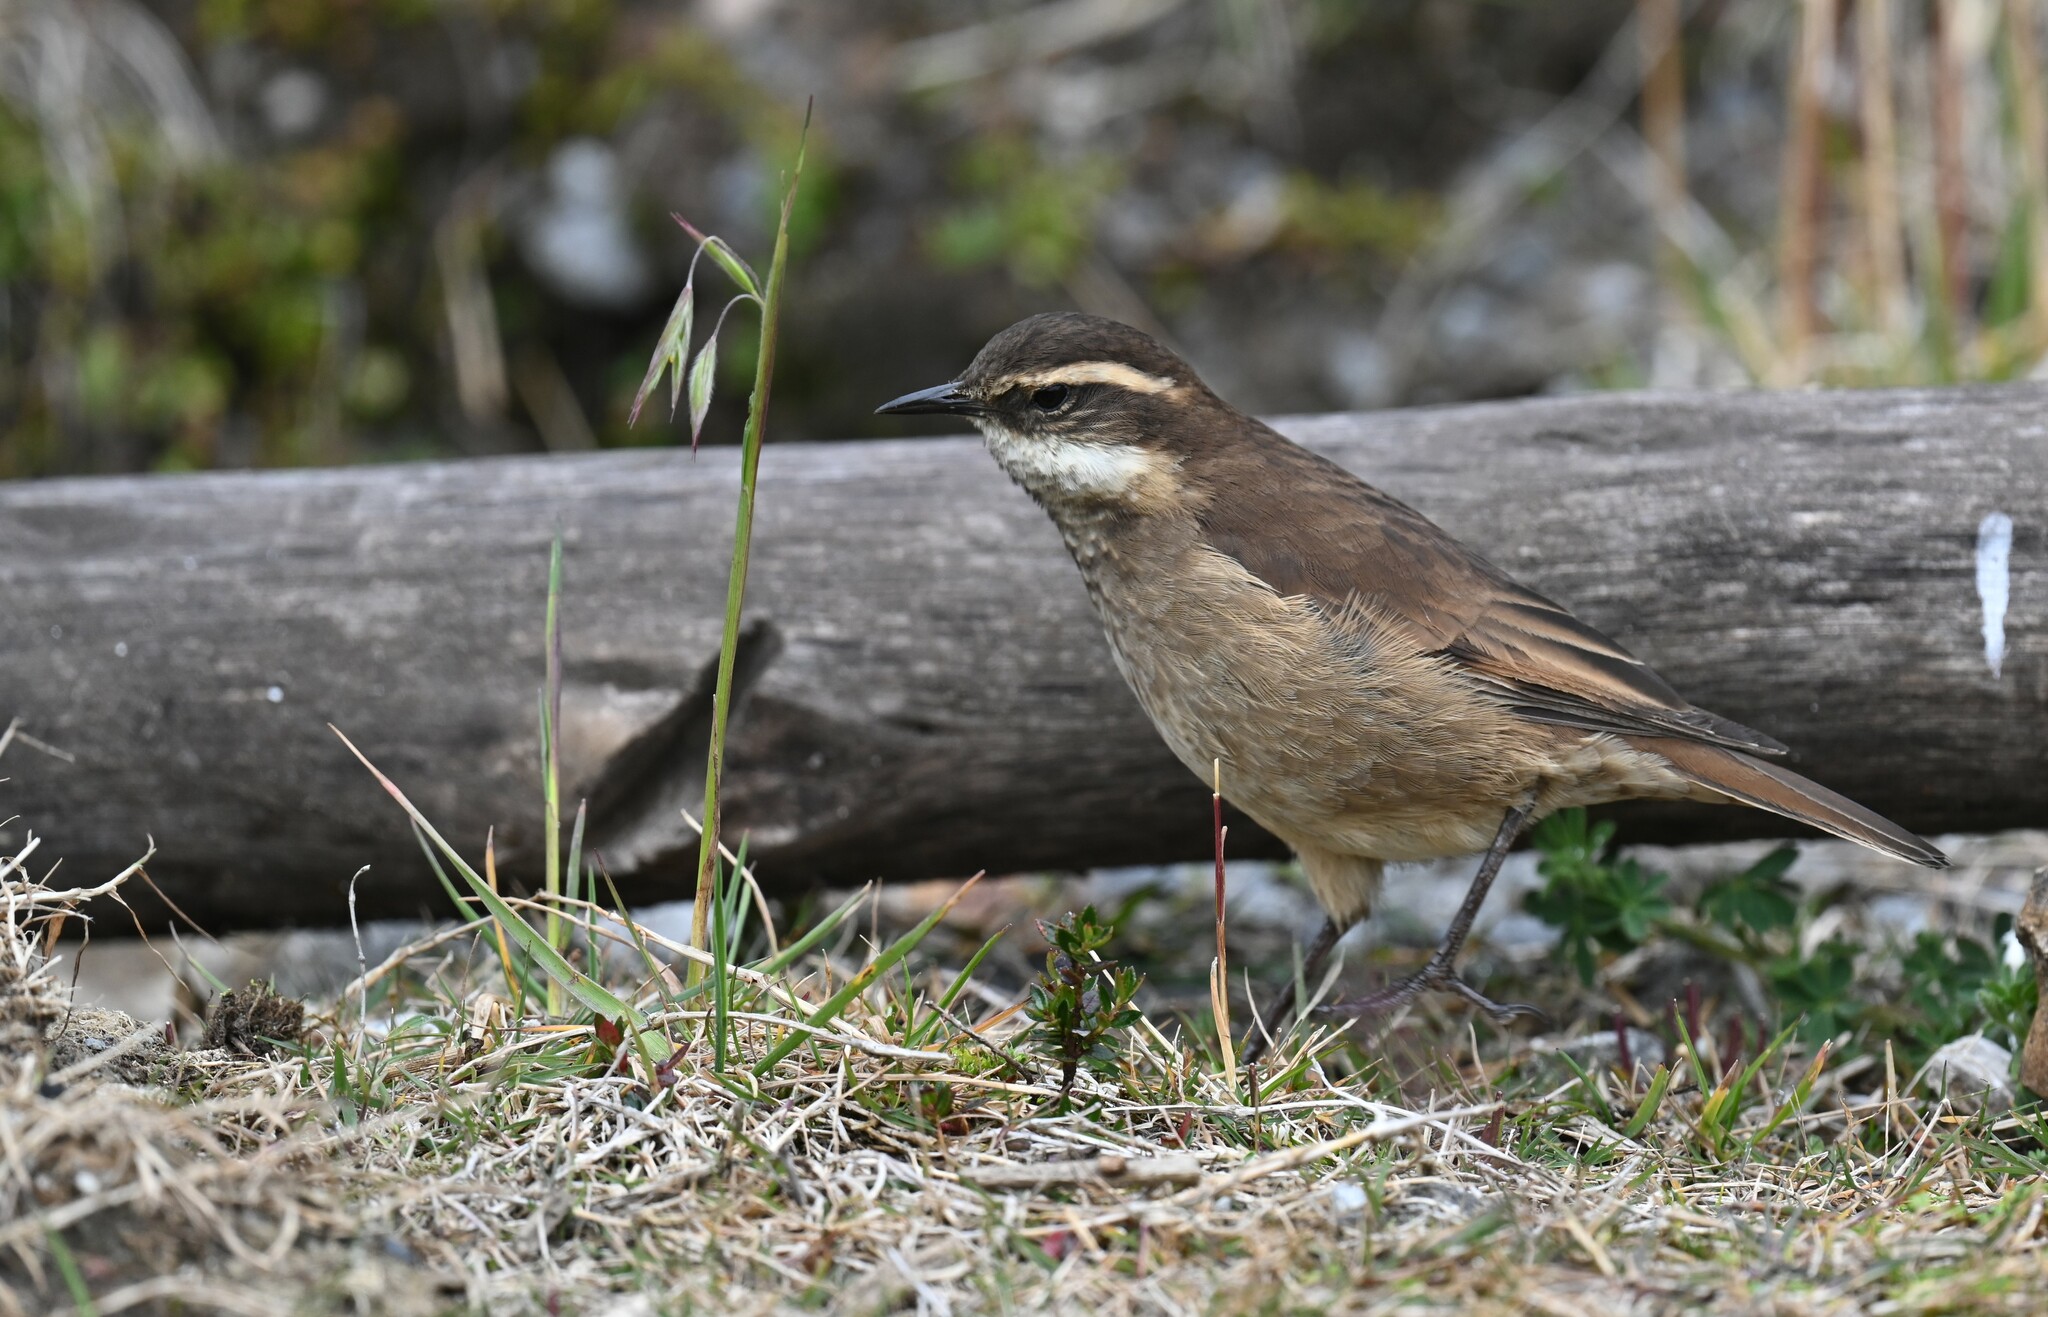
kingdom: Animalia
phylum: Chordata
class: Aves
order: Passeriformes
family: Furnariidae
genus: Cinclodes
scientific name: Cinclodes albidiventris
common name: Chestnut-winged cinclodes
